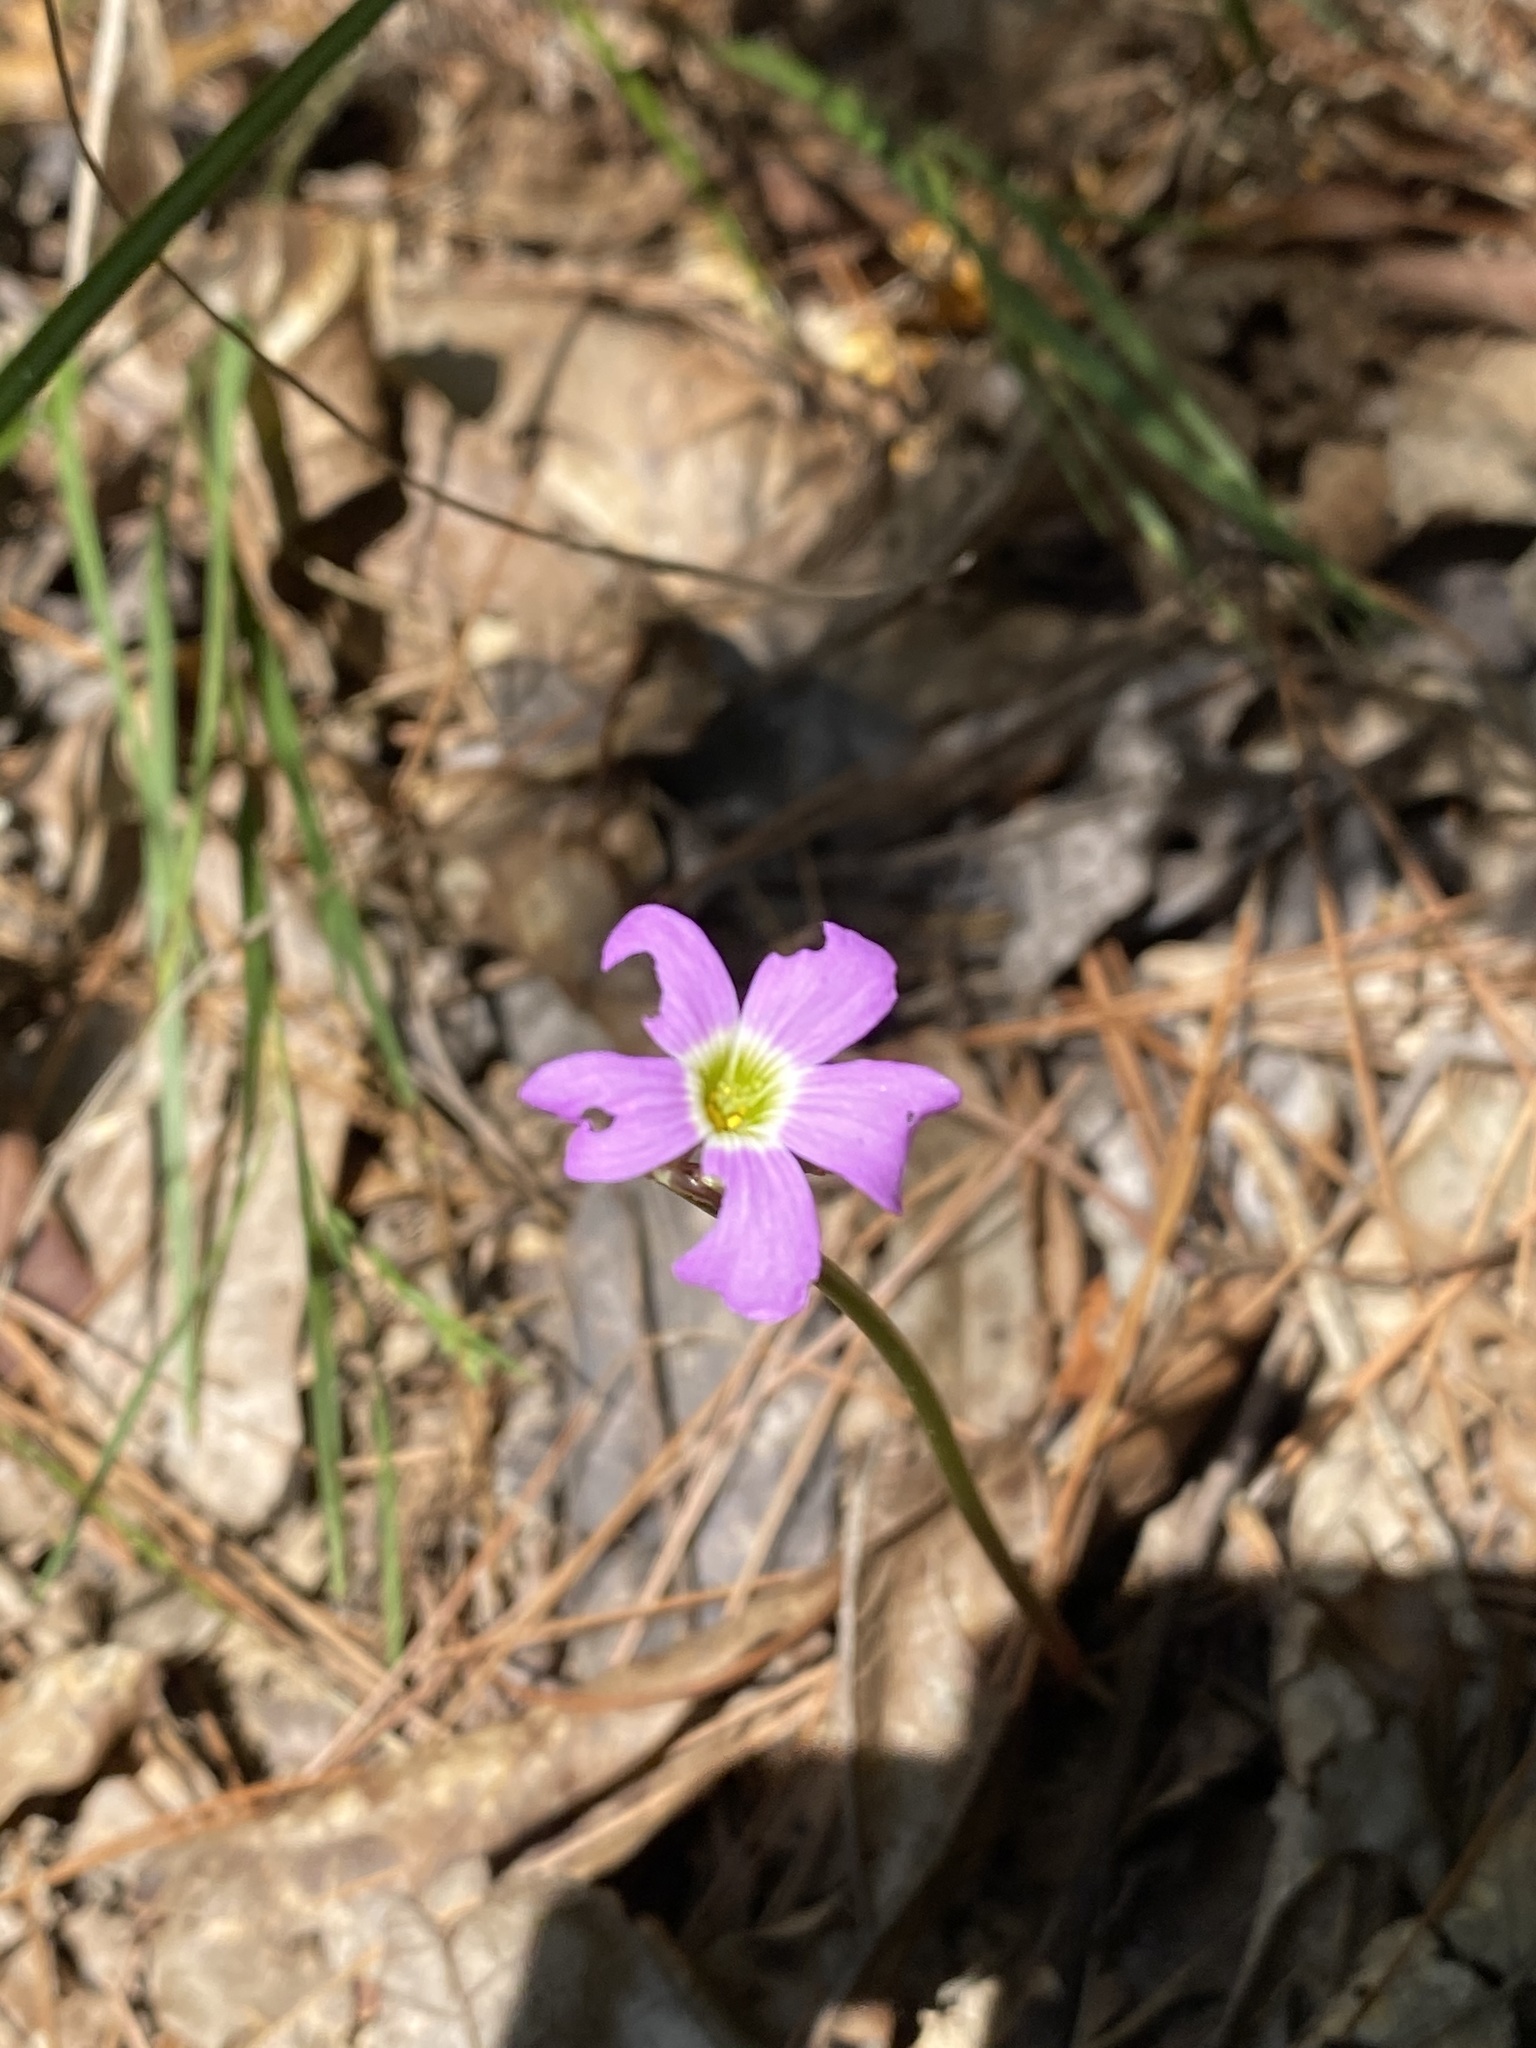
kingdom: Plantae
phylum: Tracheophyta
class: Magnoliopsida
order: Oxalidales
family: Oxalidaceae
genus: Oxalis
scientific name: Oxalis violacea
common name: Violet wood-sorrel
